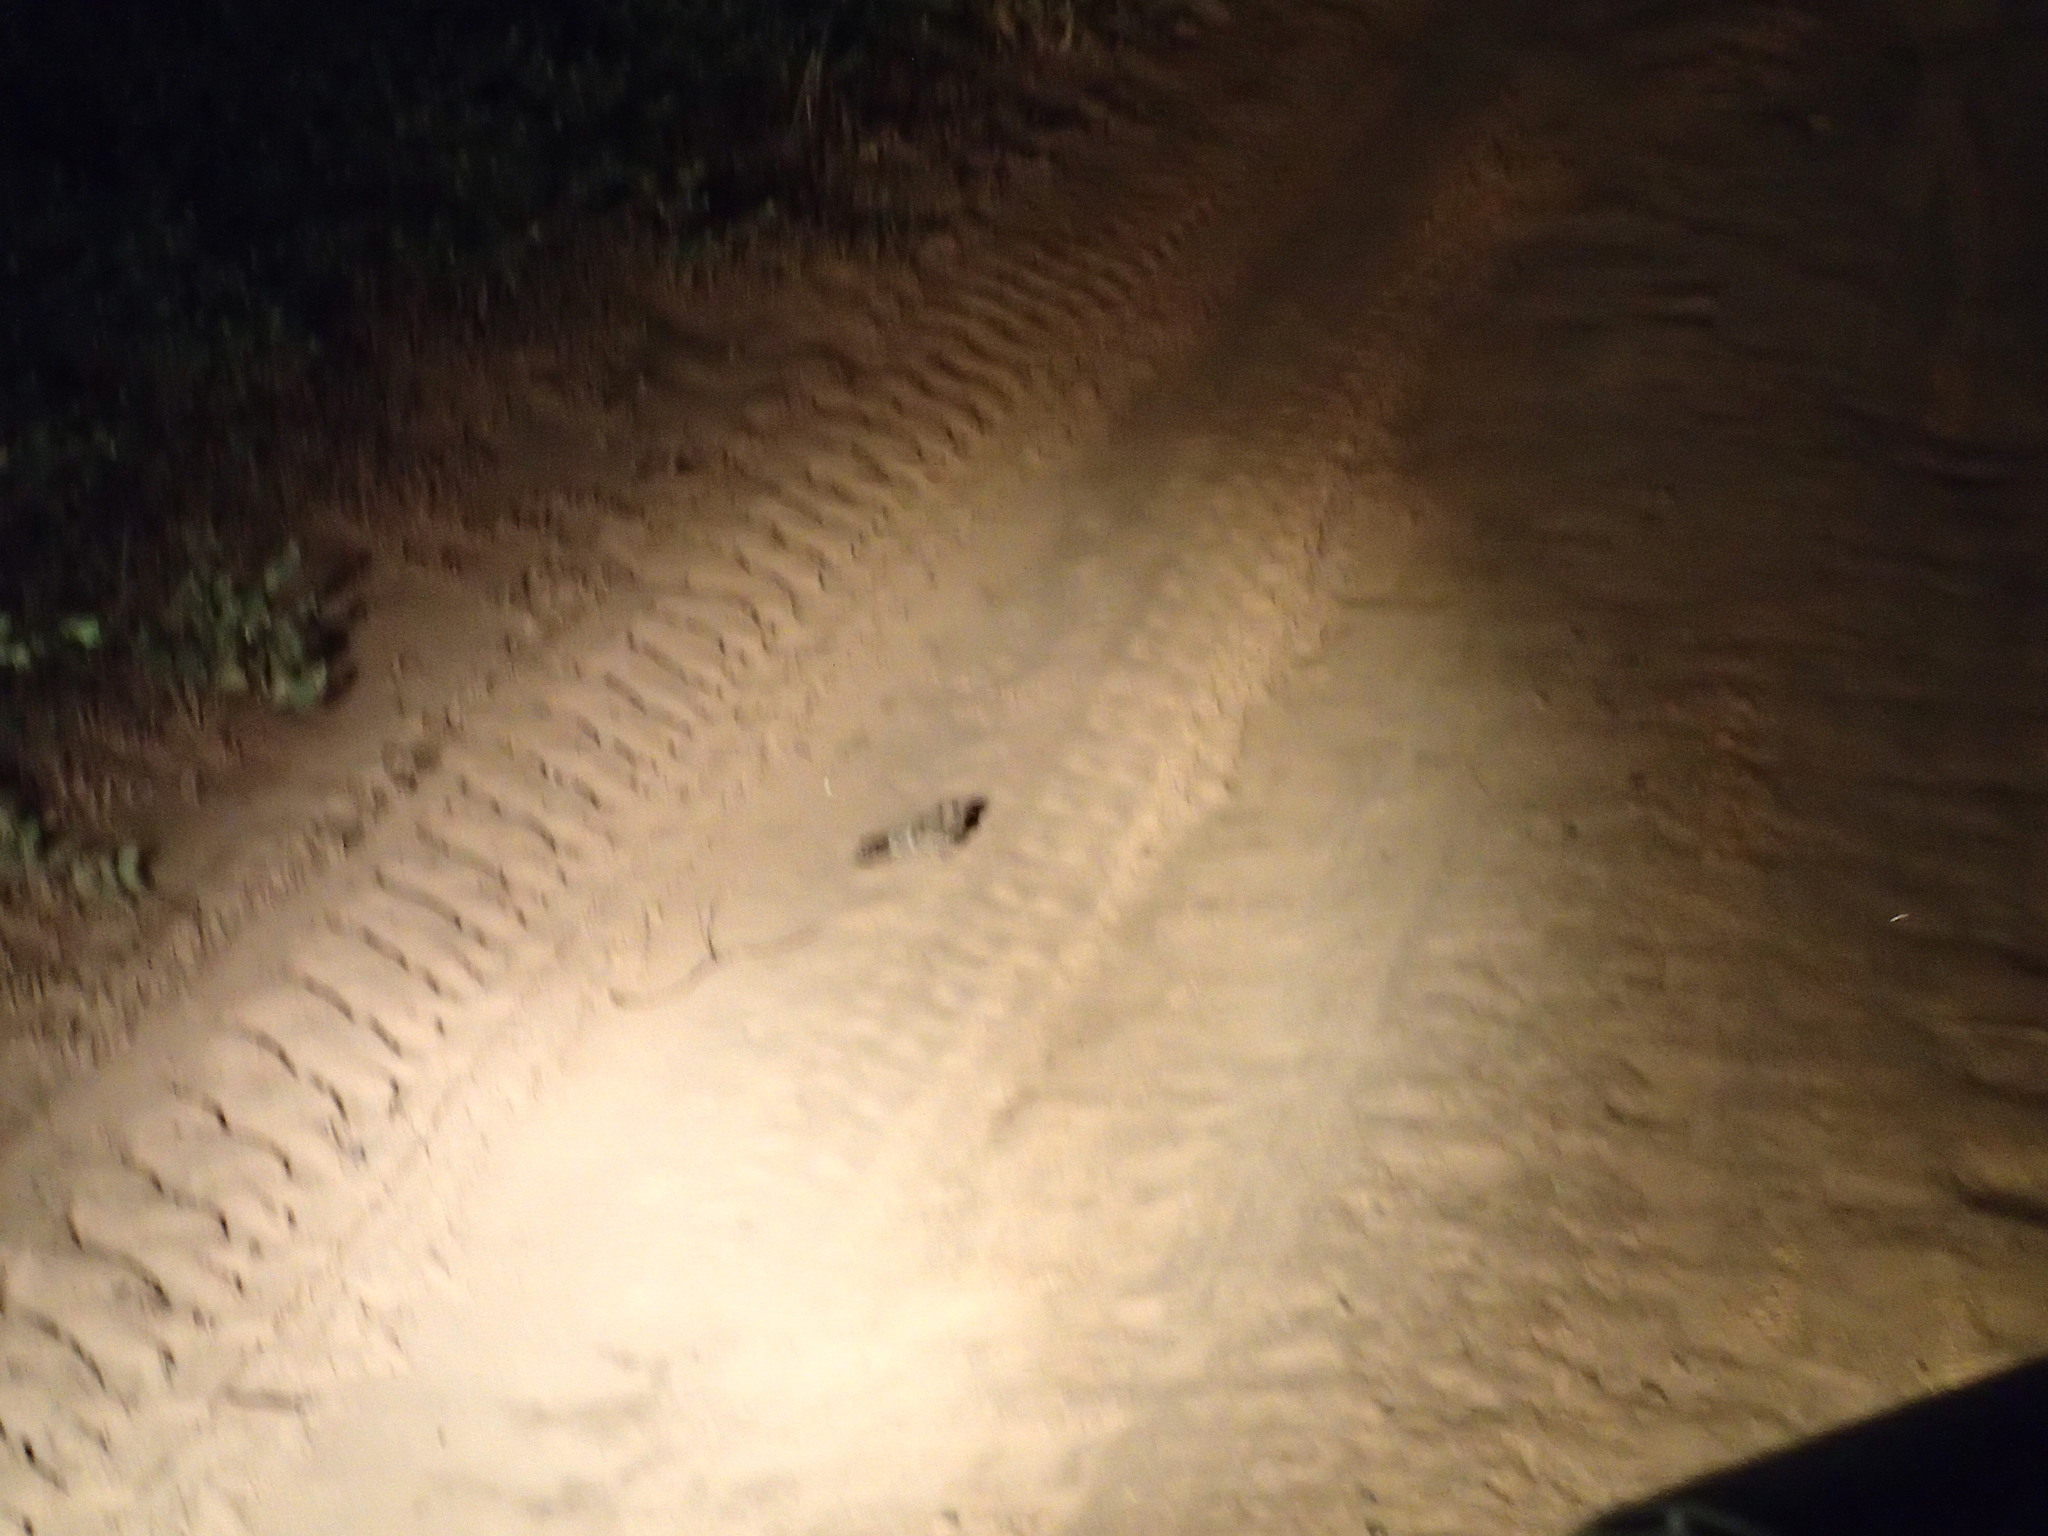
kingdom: Animalia
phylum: Chordata
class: Aves
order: Caprimulgiformes
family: Caprimulgidae
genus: Setopagis
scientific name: Setopagis parvula
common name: Little nightjar
